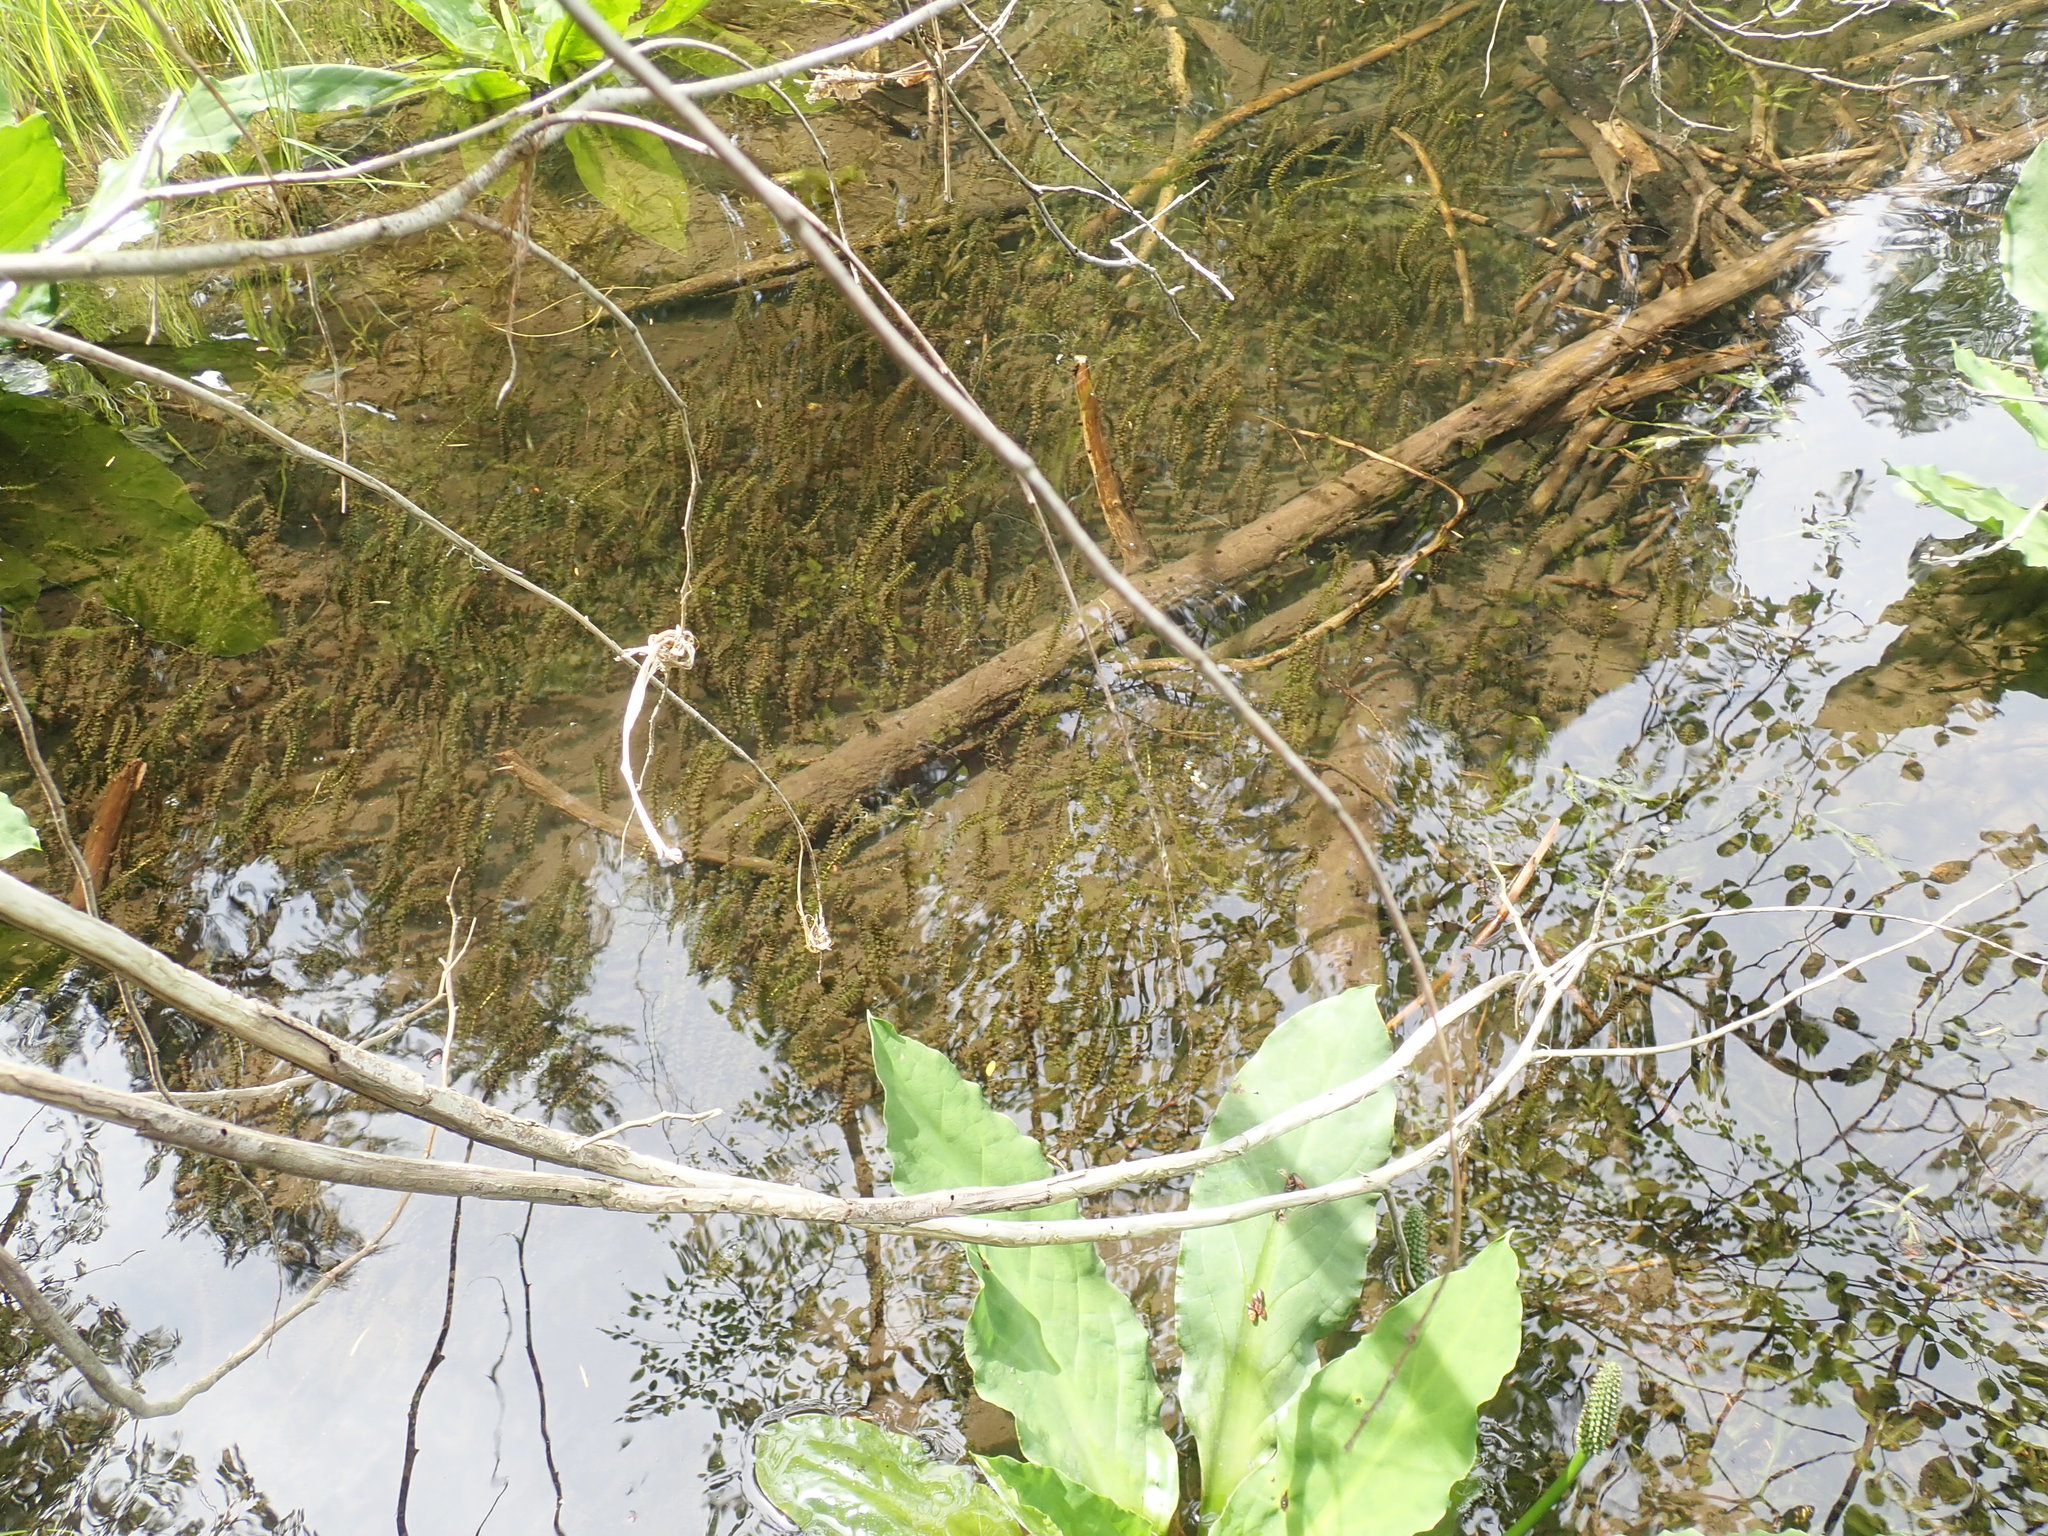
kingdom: Plantae
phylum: Tracheophyta
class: Liliopsida
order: Alismatales
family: Hydrocharitaceae
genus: Elodea
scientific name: Elodea canadensis
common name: Canadian waterweed
